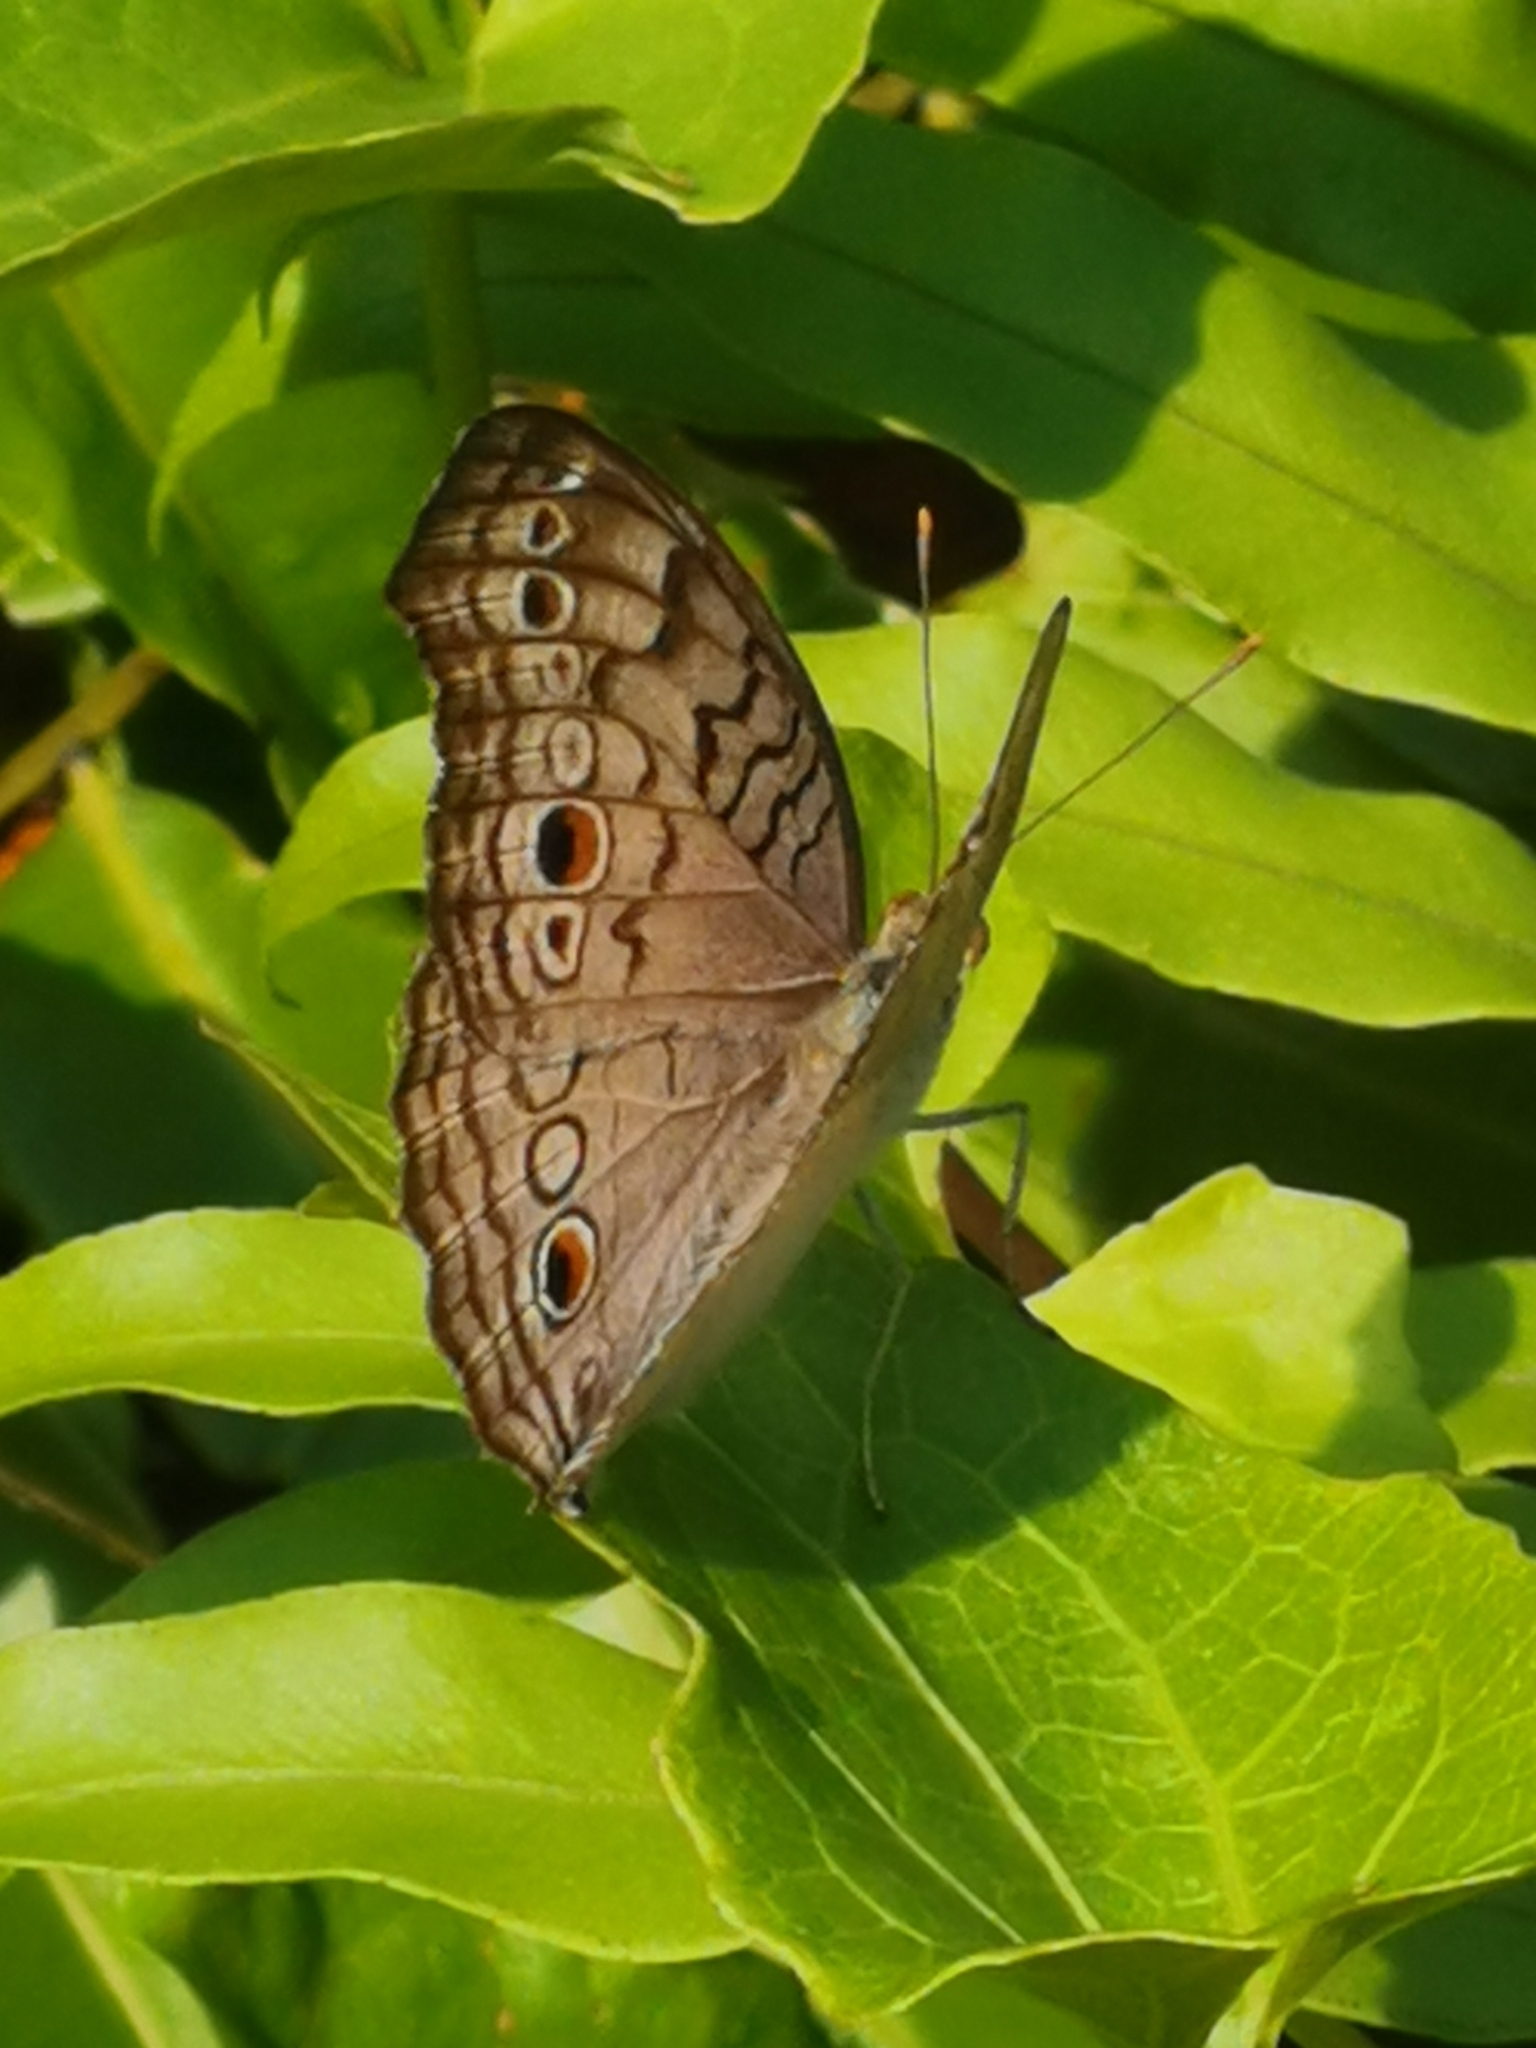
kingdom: Animalia
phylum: Arthropoda
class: Insecta
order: Lepidoptera
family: Nymphalidae
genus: Junonia
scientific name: Junonia atlites
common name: Grey pansy
